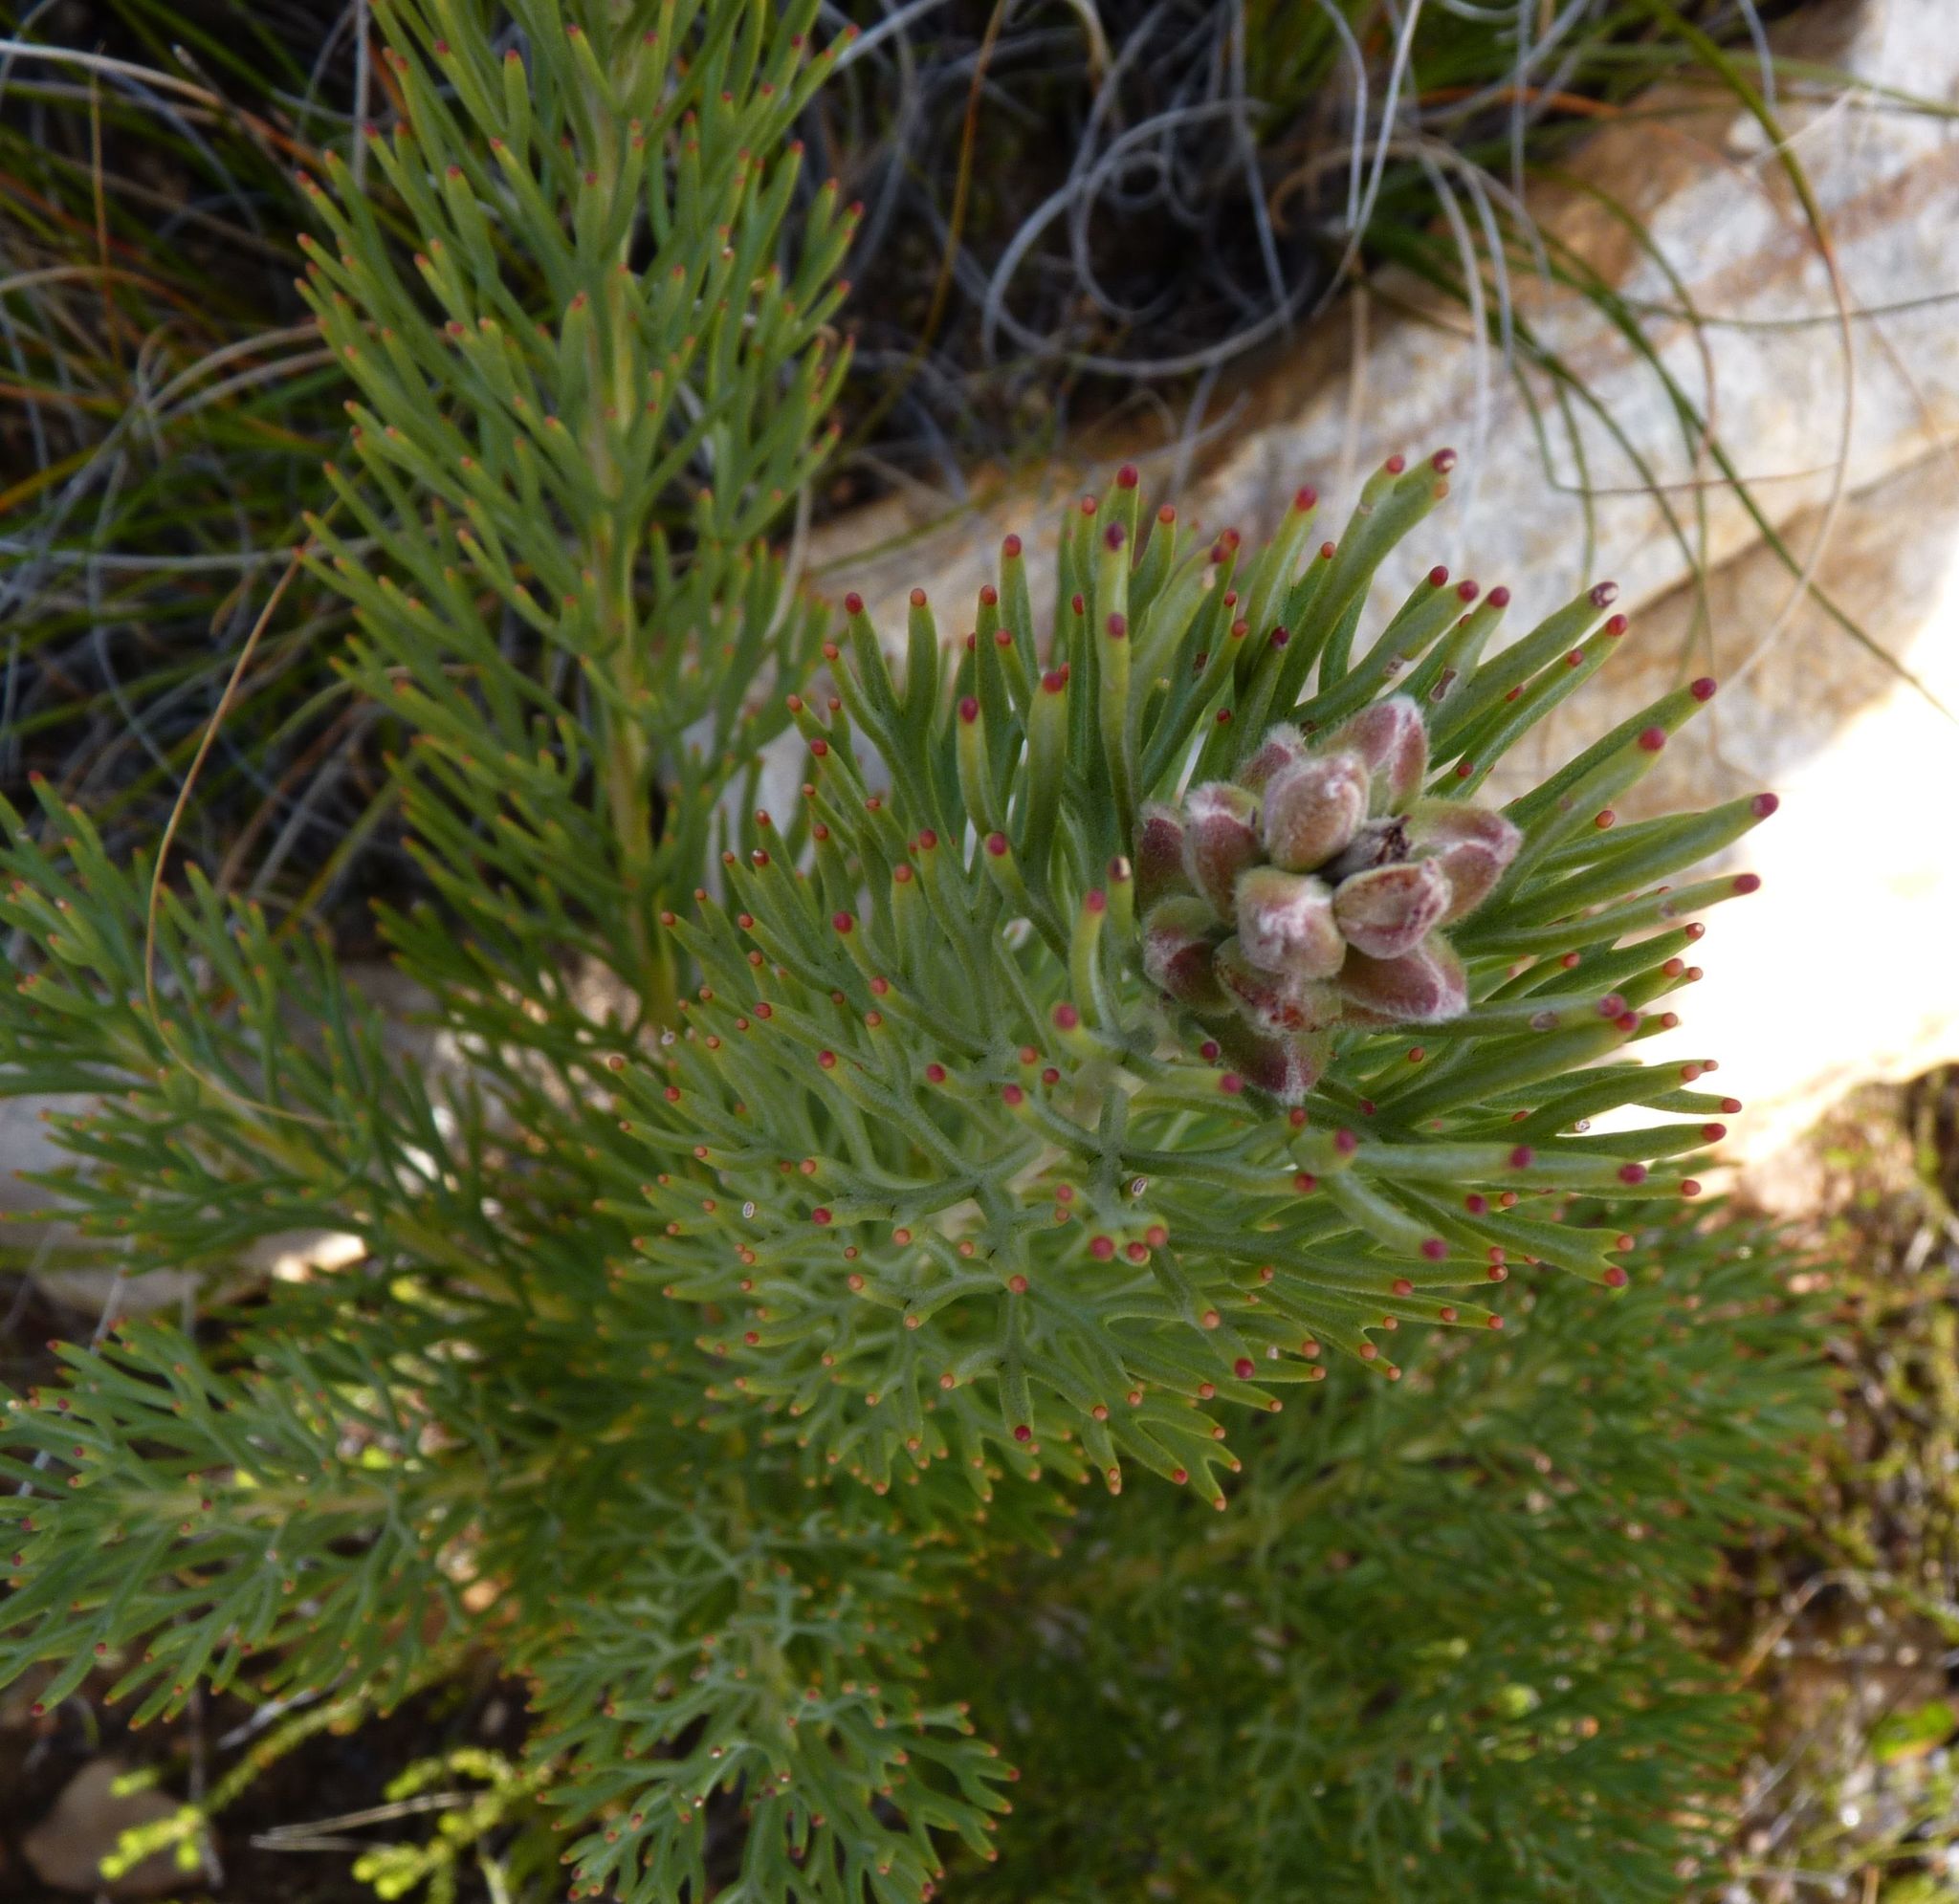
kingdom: Plantae
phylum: Tracheophyta
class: Magnoliopsida
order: Proteales
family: Proteaceae
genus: Paranomus
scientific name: Paranomus dregei
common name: Scented sceptre
